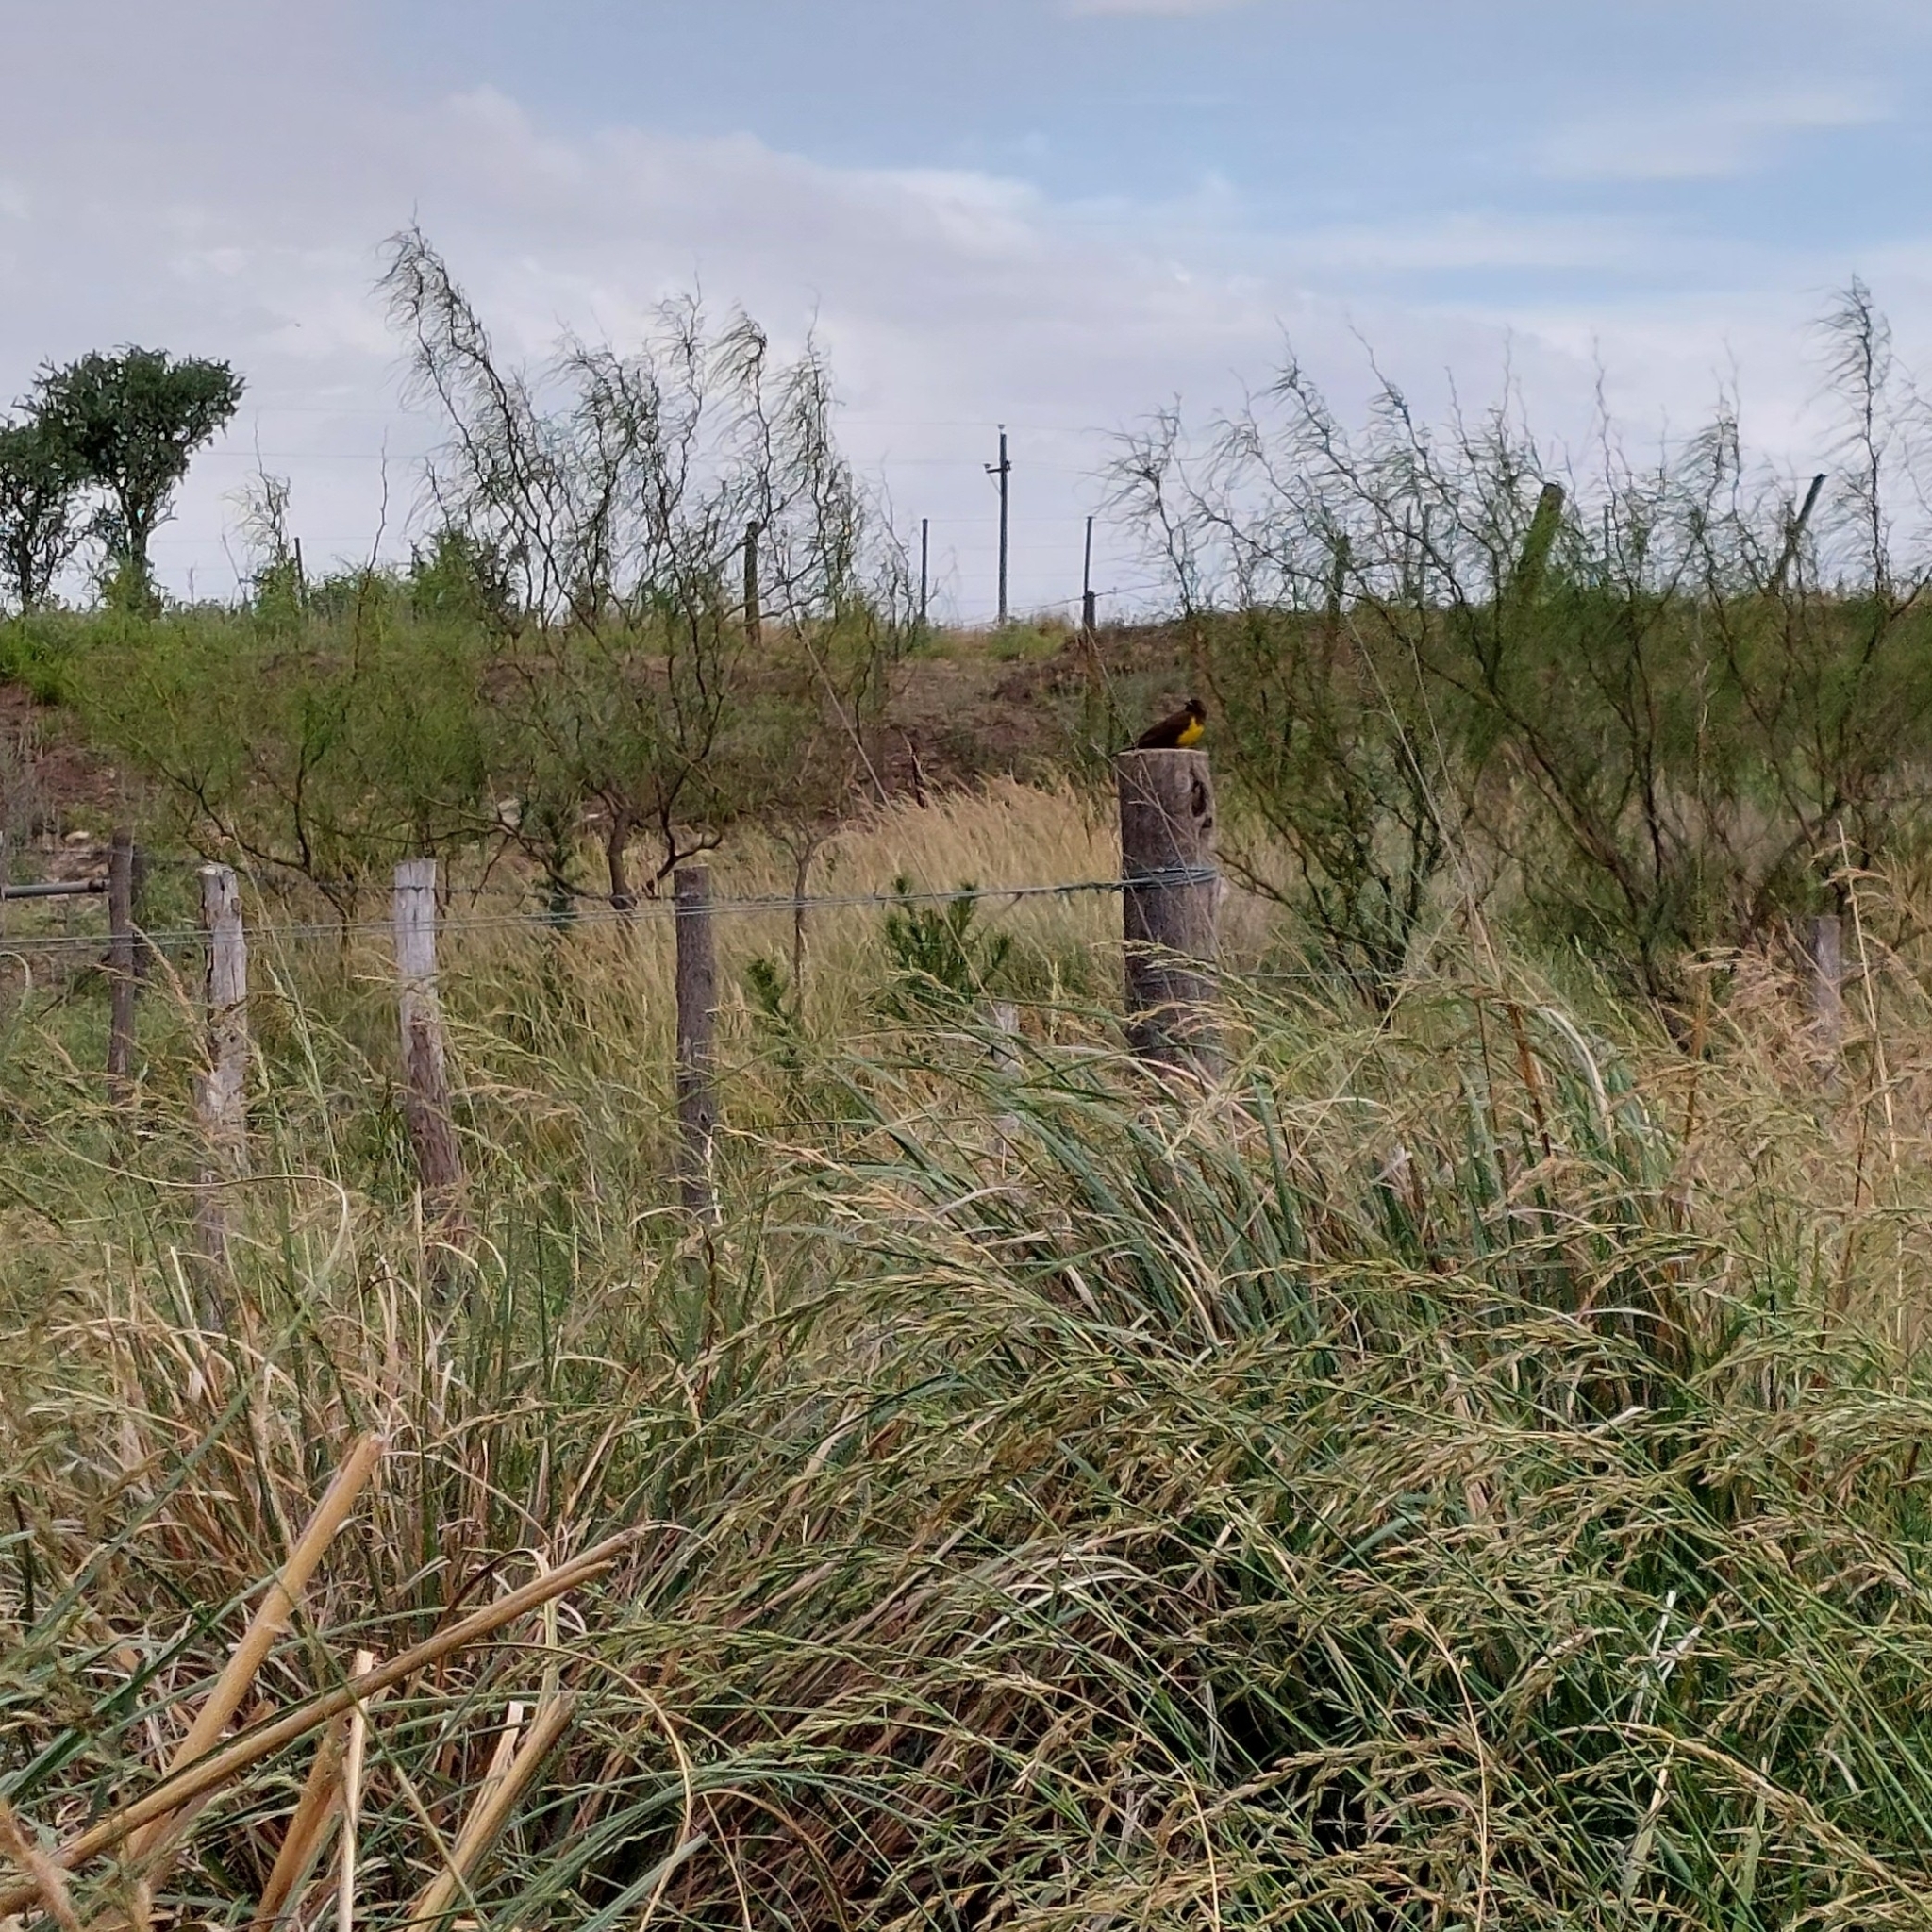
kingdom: Animalia
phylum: Chordata
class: Aves
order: Passeriformes
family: Icteridae
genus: Pseudoleistes
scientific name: Pseudoleistes virescens
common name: Brown-and-yellow marshbird
